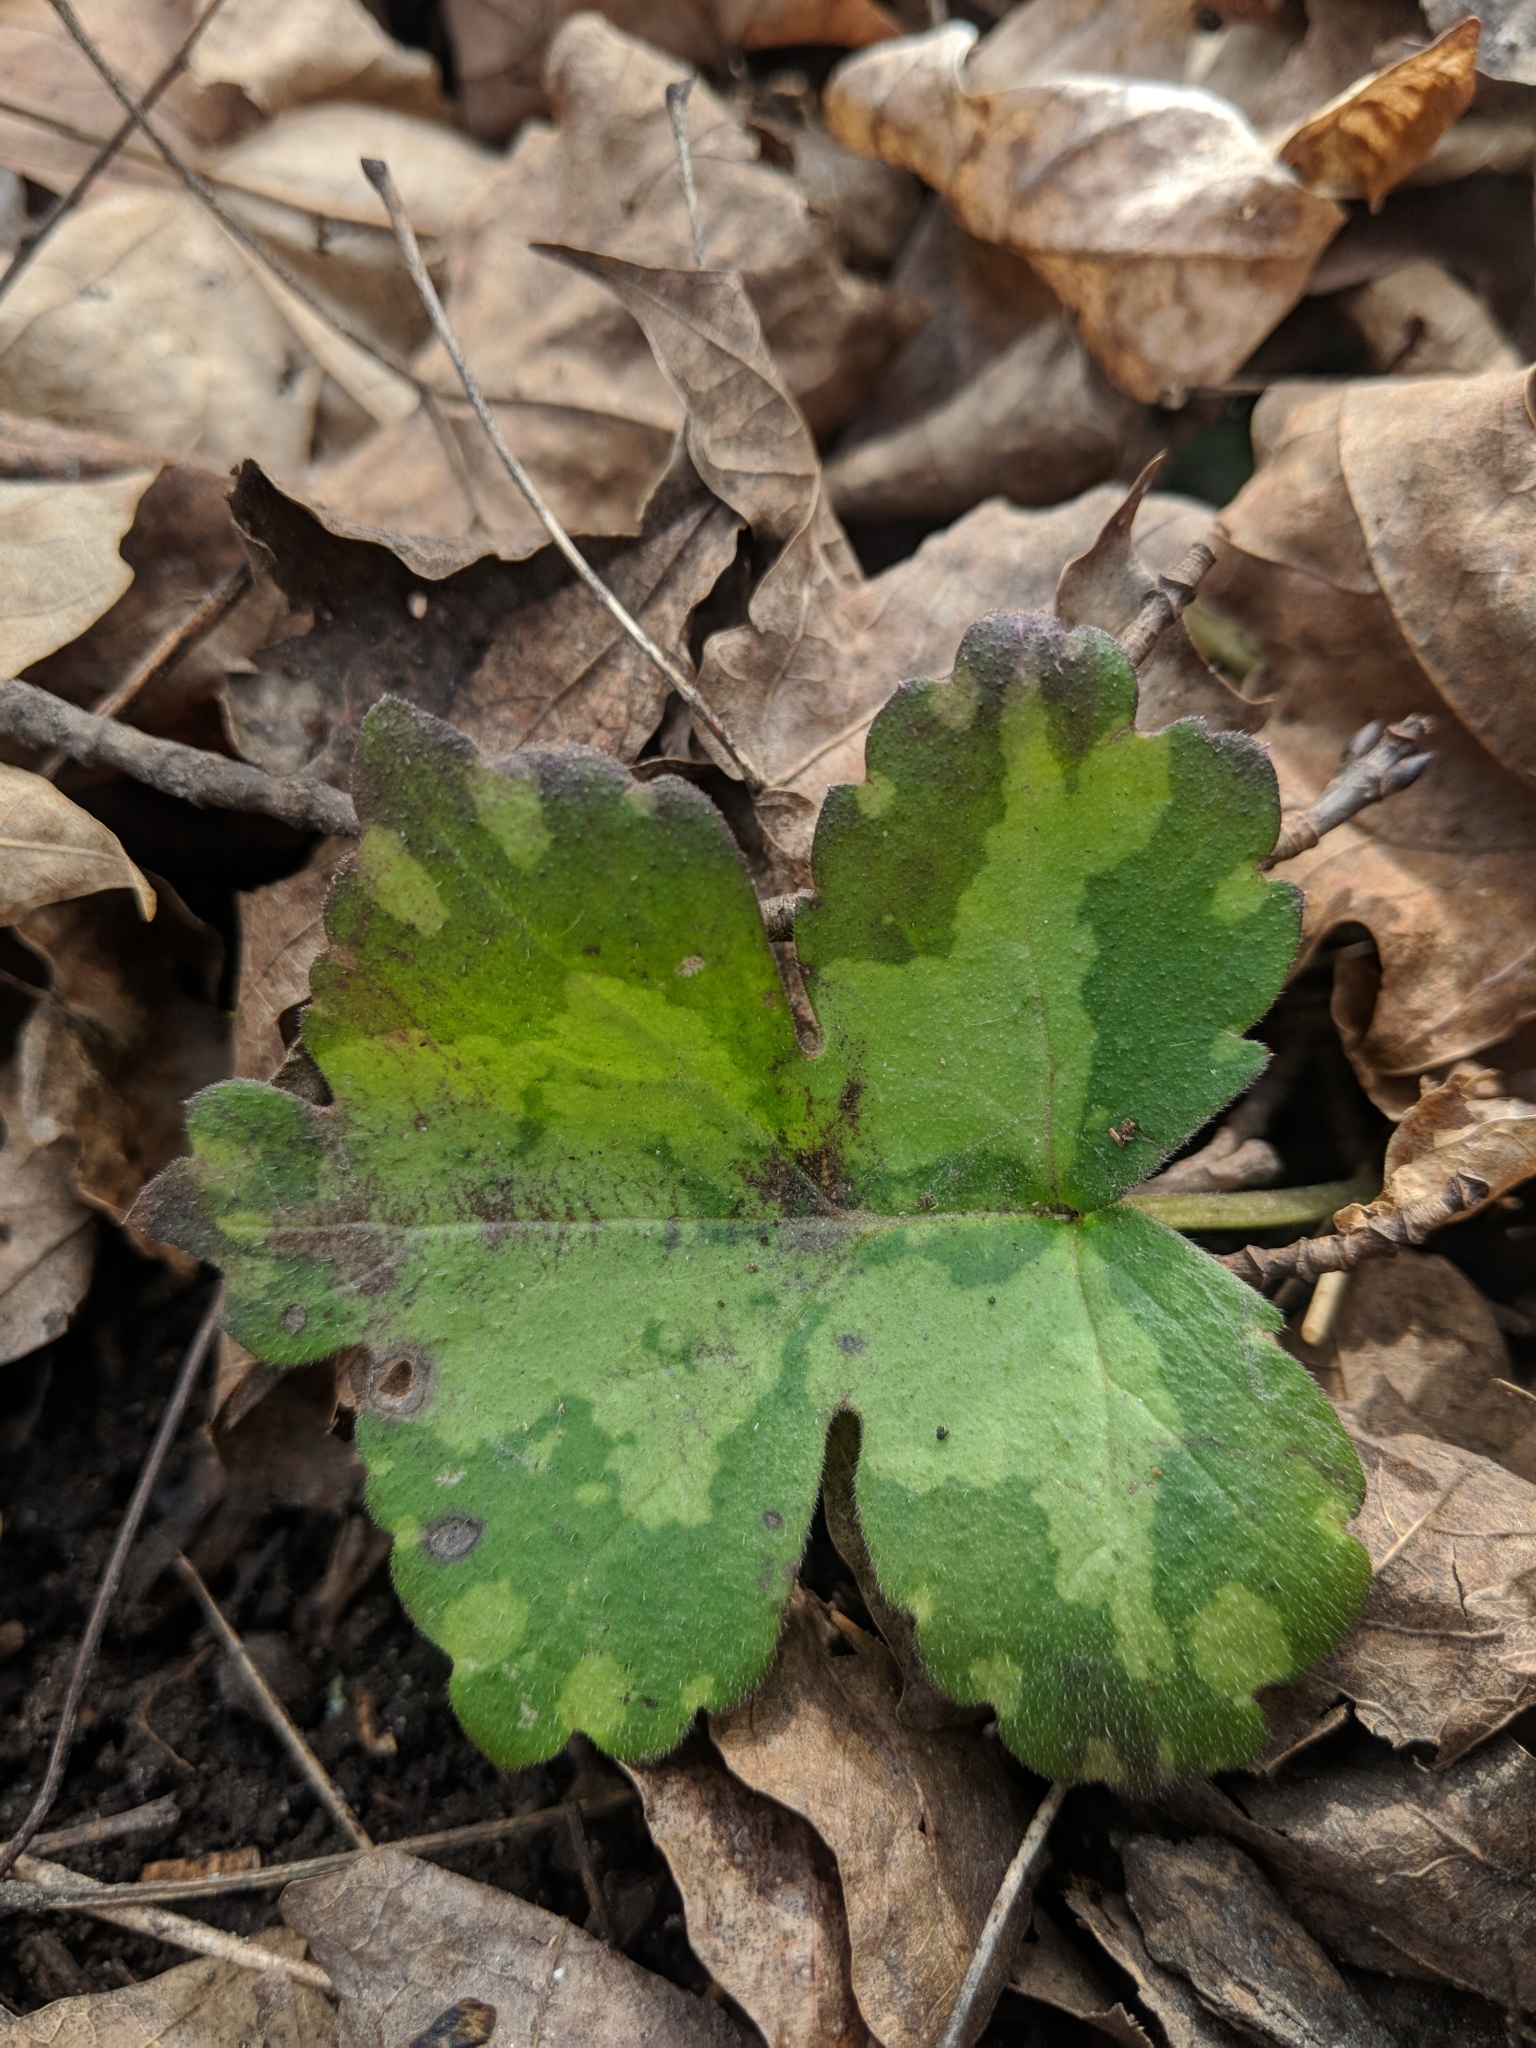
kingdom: Plantae
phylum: Tracheophyta
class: Magnoliopsida
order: Boraginales
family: Hydrophyllaceae
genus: Hydrophyllum
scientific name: Hydrophyllum appendiculatum
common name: Appendaged waterleaf
